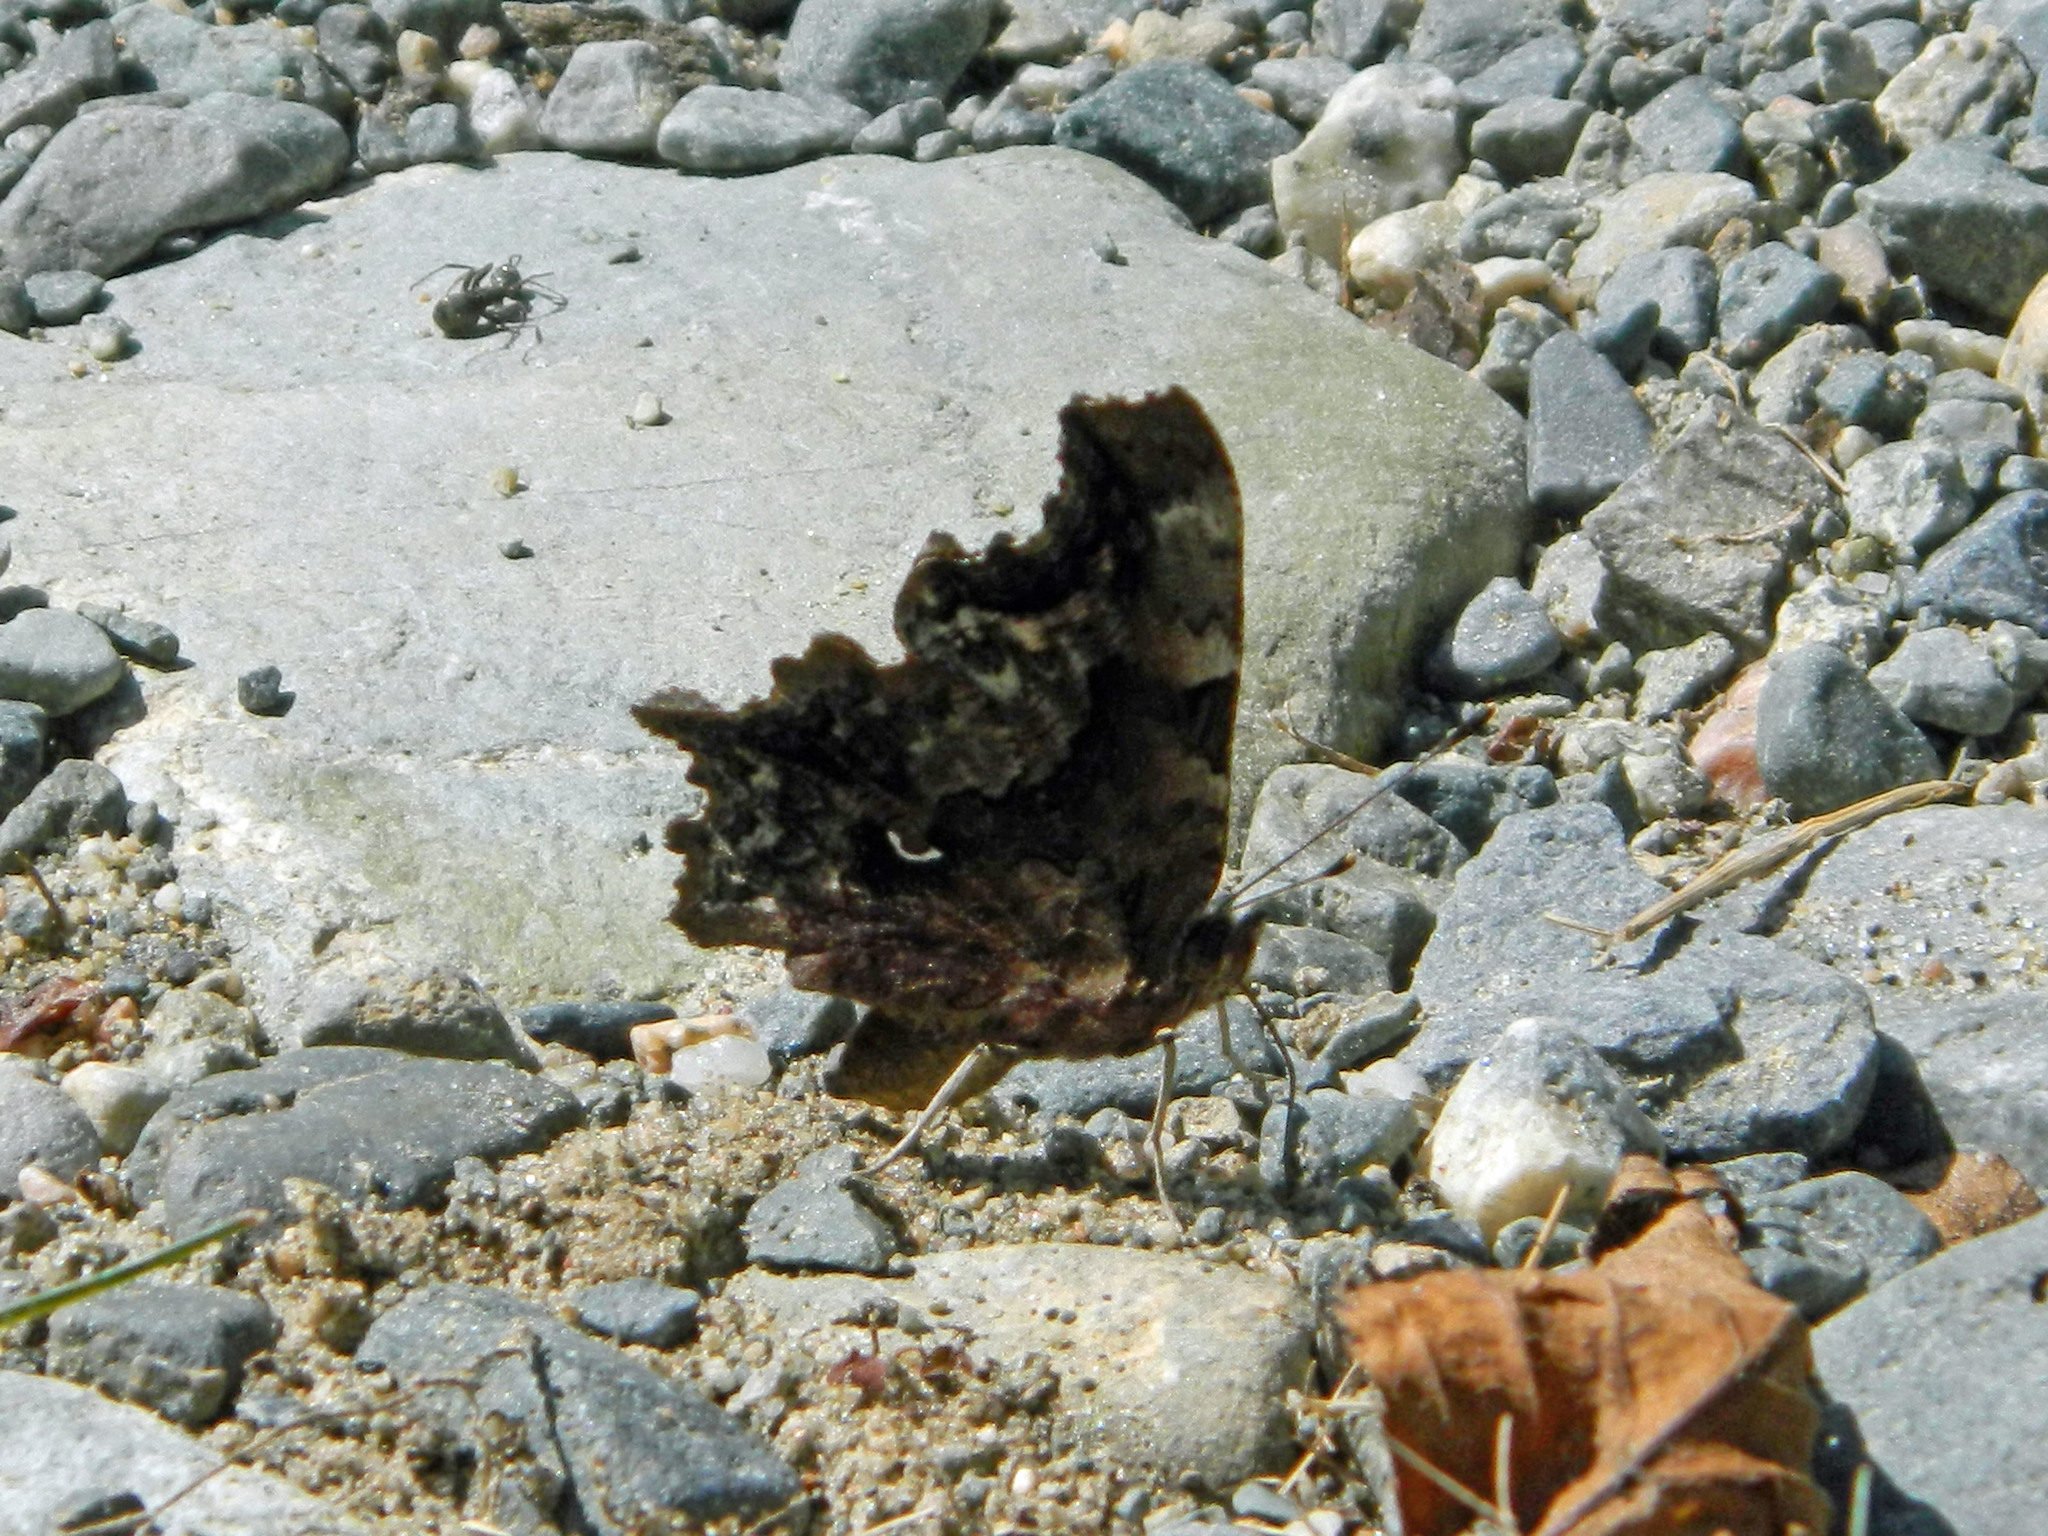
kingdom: Animalia
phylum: Arthropoda
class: Insecta
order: Lepidoptera
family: Nymphalidae
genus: Polygonia
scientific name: Polygonia faunus
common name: Green comma
